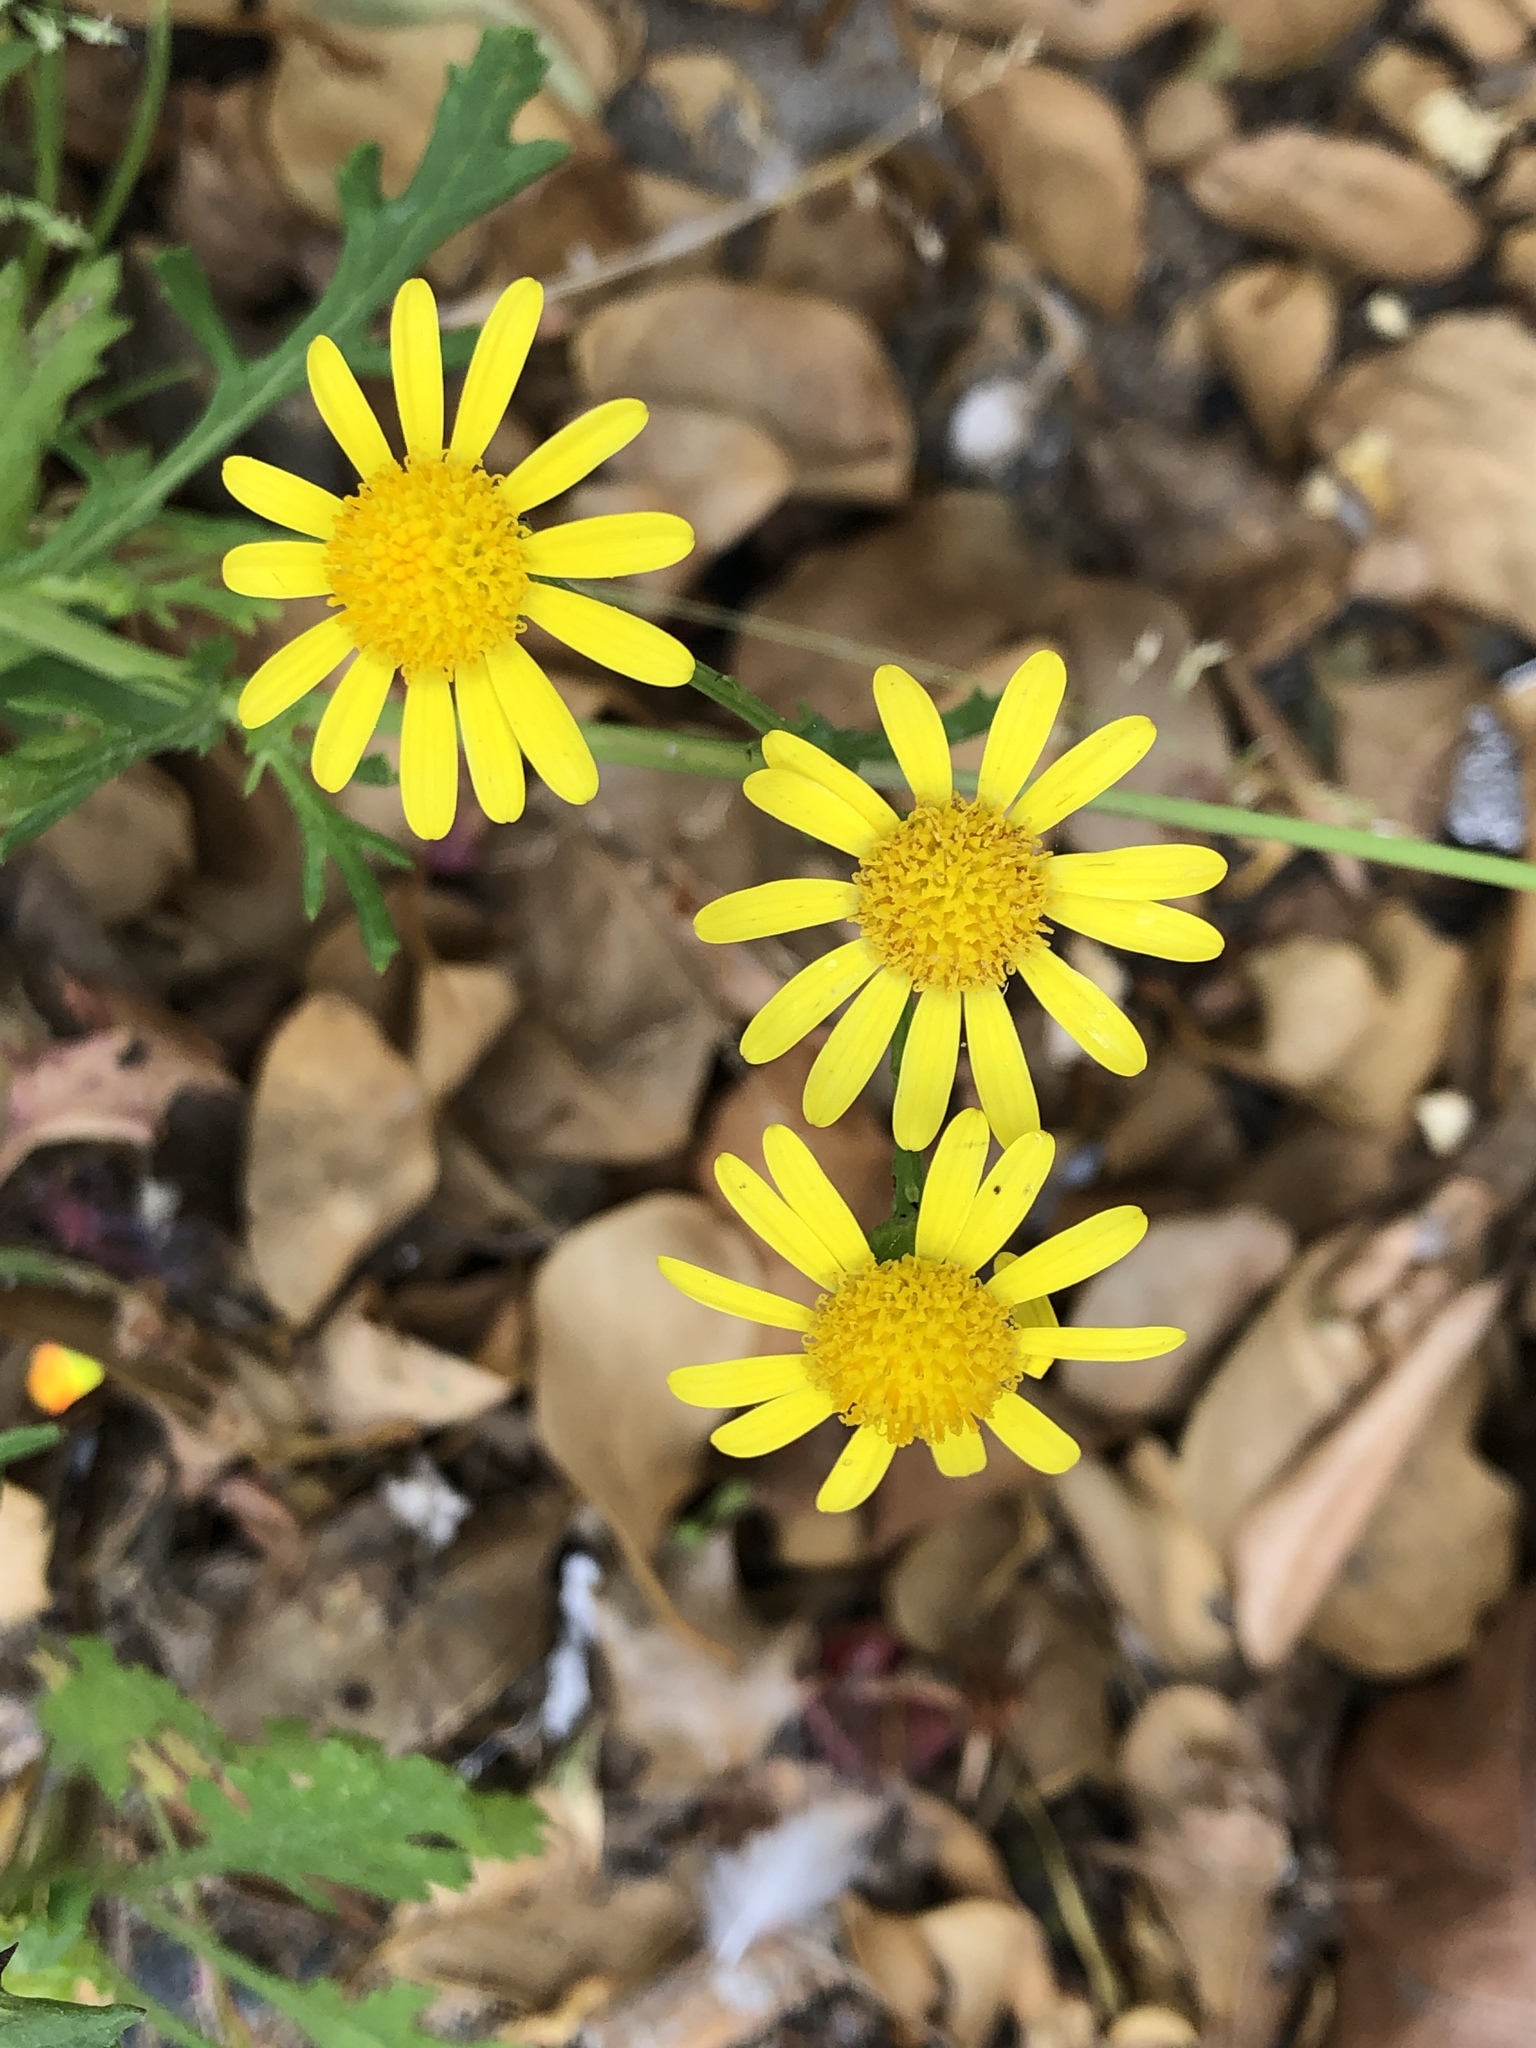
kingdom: Plantae
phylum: Tracheophyta
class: Magnoliopsida
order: Asterales
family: Asteraceae
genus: Senecio
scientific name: Senecio inaequidens
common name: Narrow-leaved ragwort
